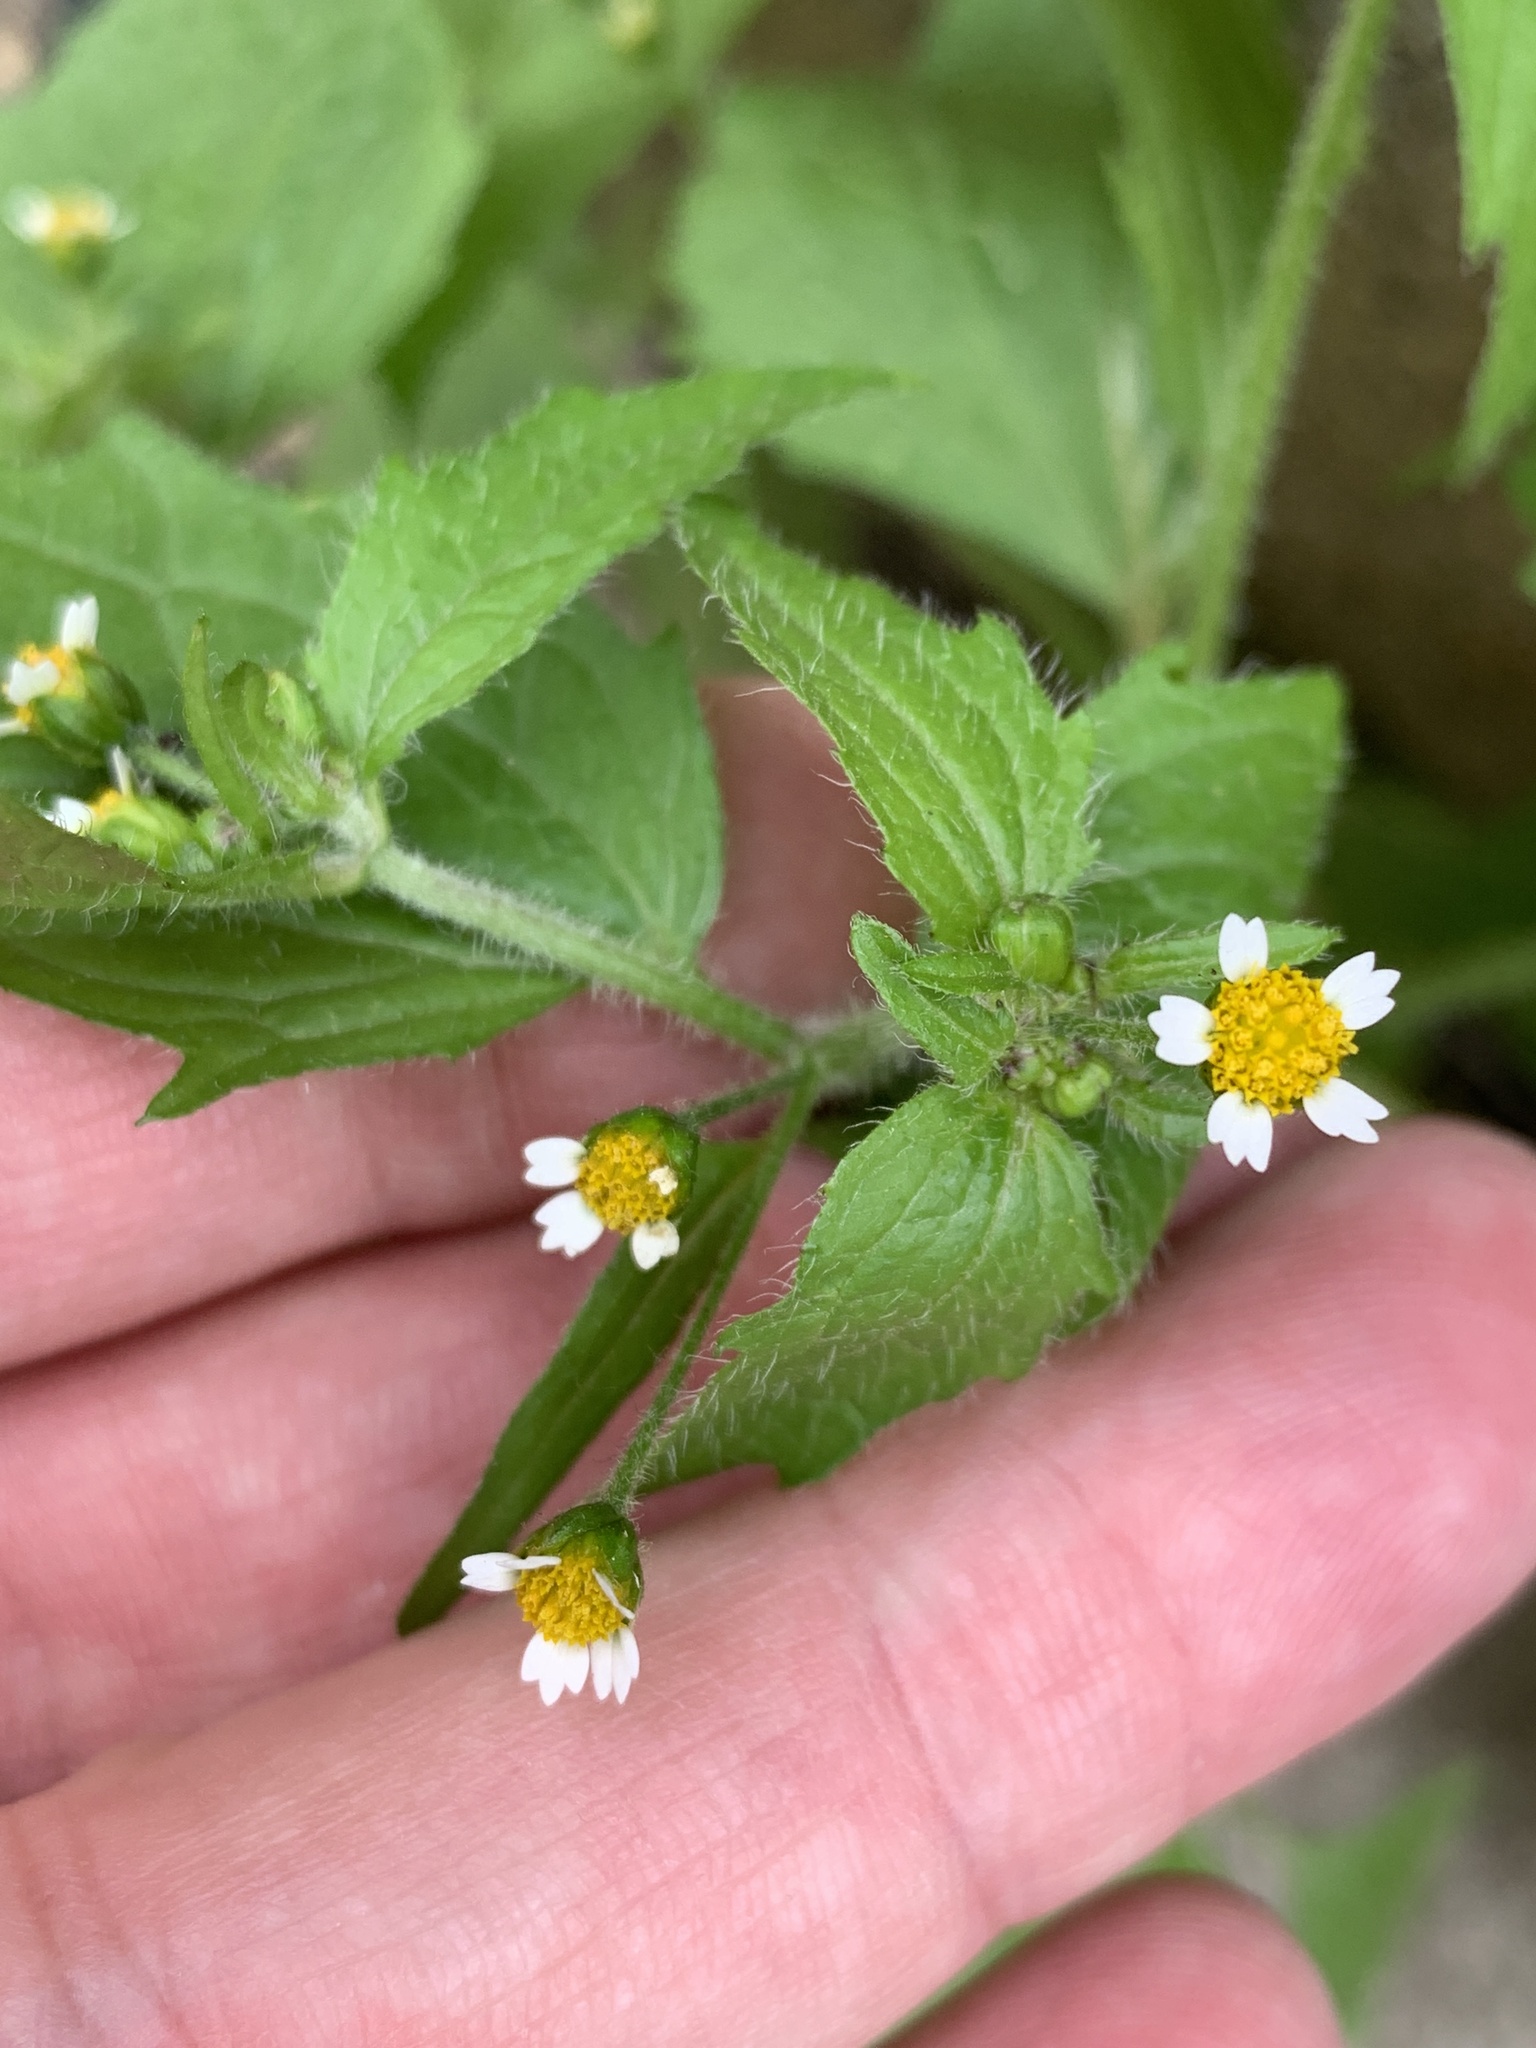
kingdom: Plantae
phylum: Tracheophyta
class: Magnoliopsida
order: Asterales
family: Asteraceae
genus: Galinsoga
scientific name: Galinsoga quadriradiata
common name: Shaggy soldier
